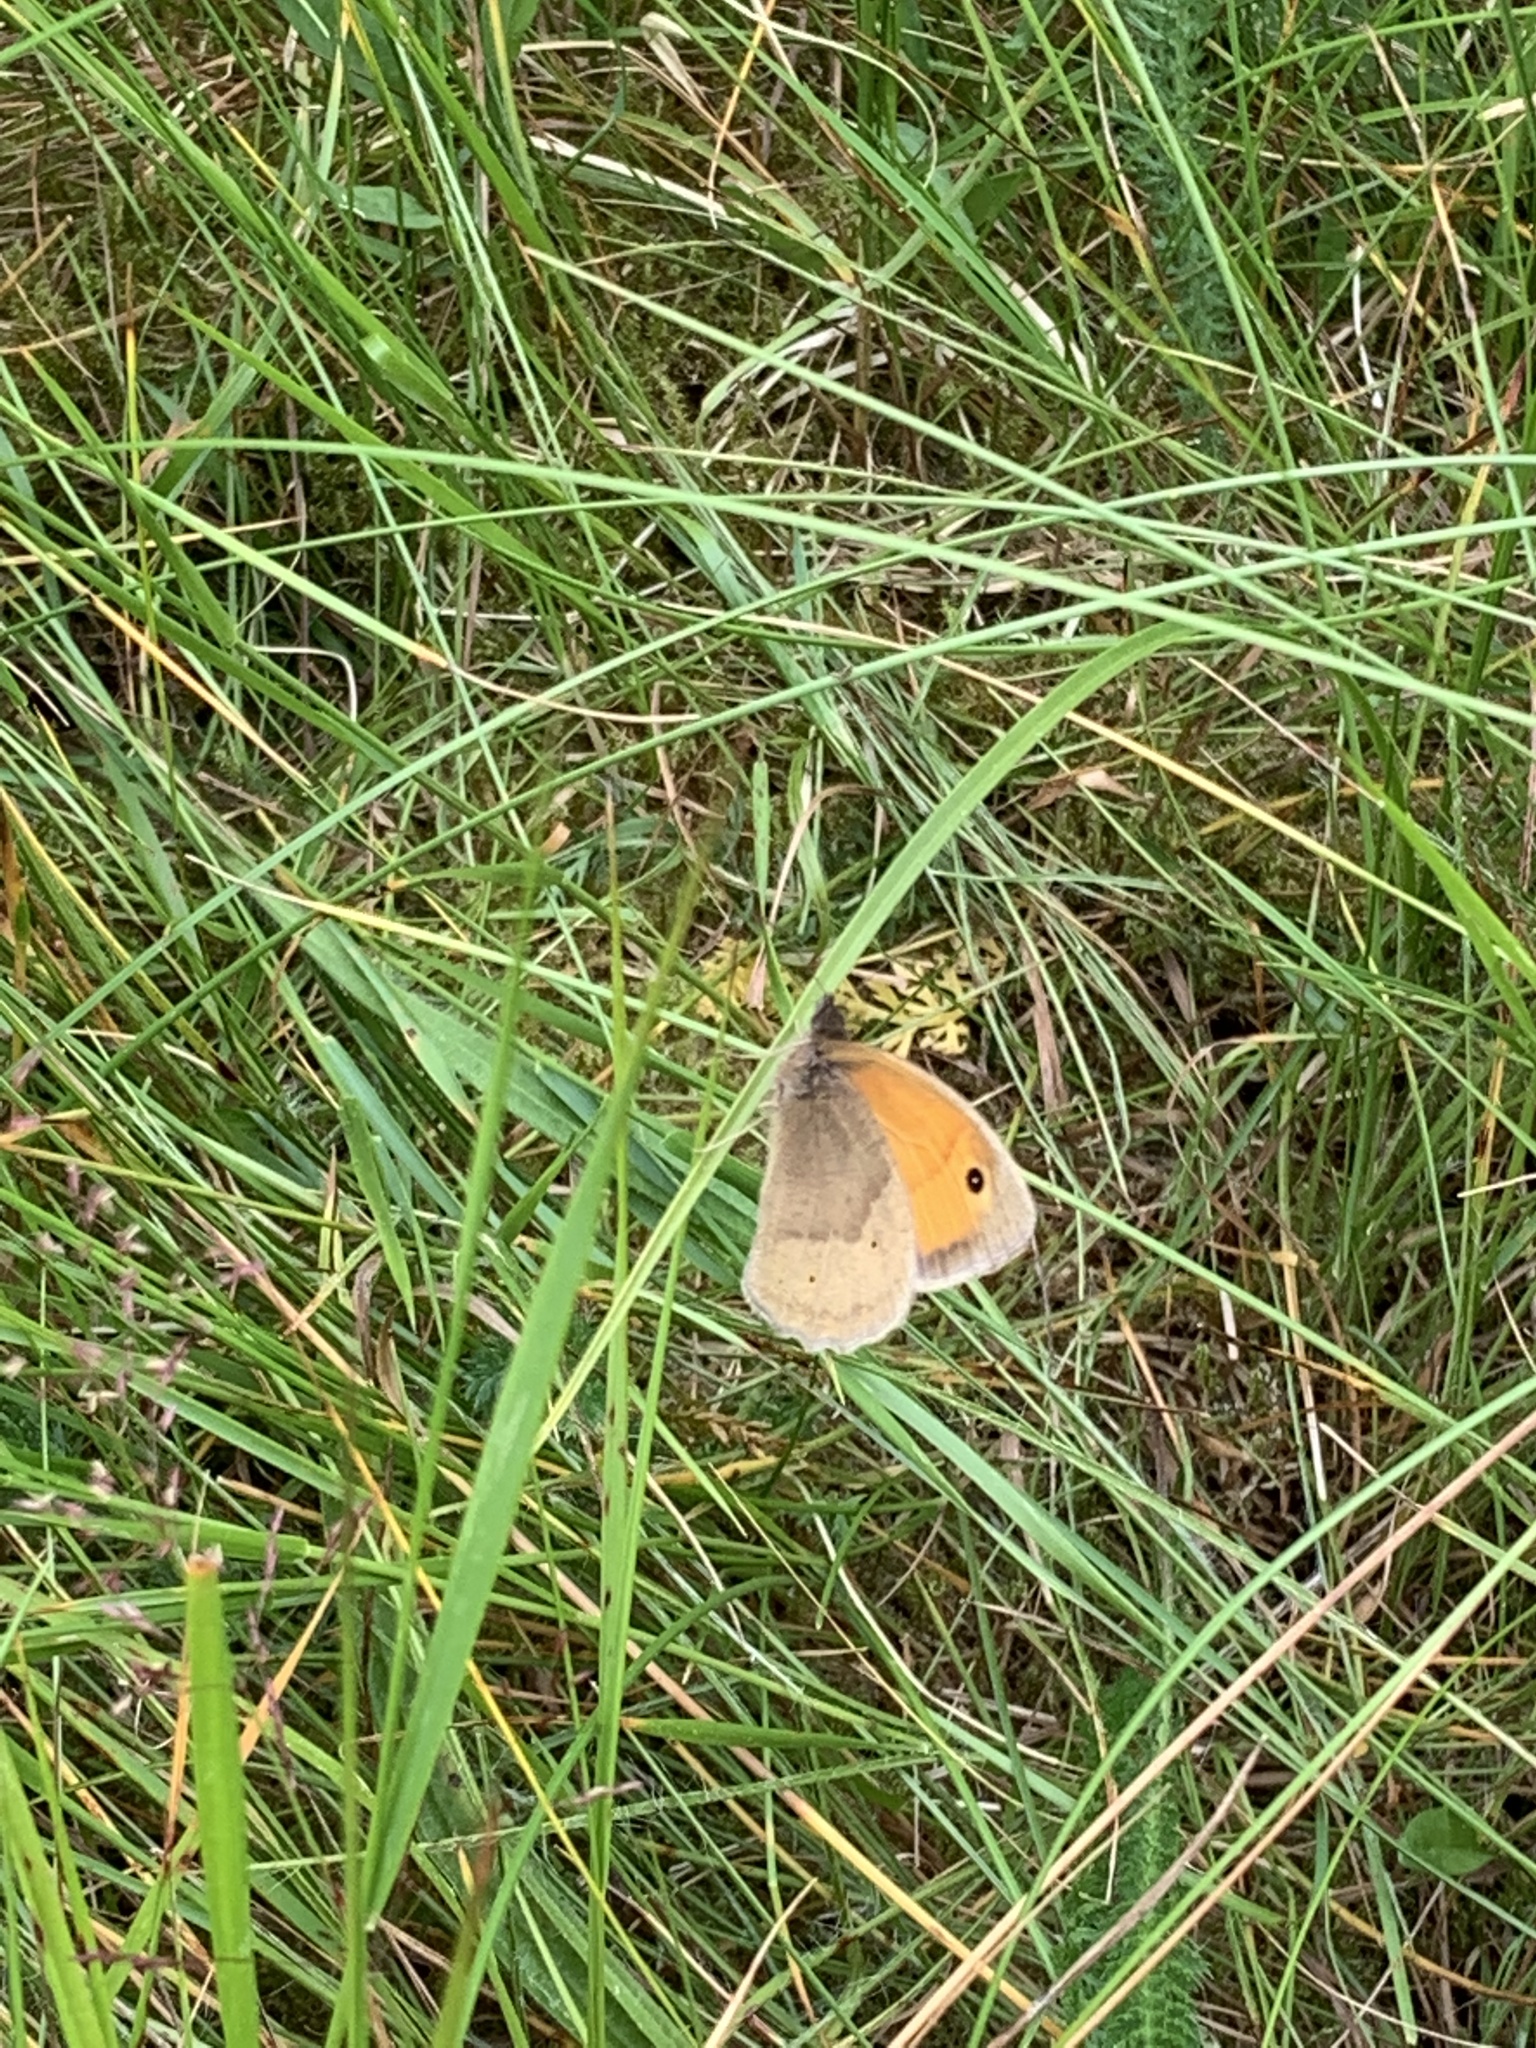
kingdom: Animalia
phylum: Arthropoda
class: Insecta
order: Lepidoptera
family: Nymphalidae
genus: Maniola
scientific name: Maniola jurtina
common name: Meadow brown
